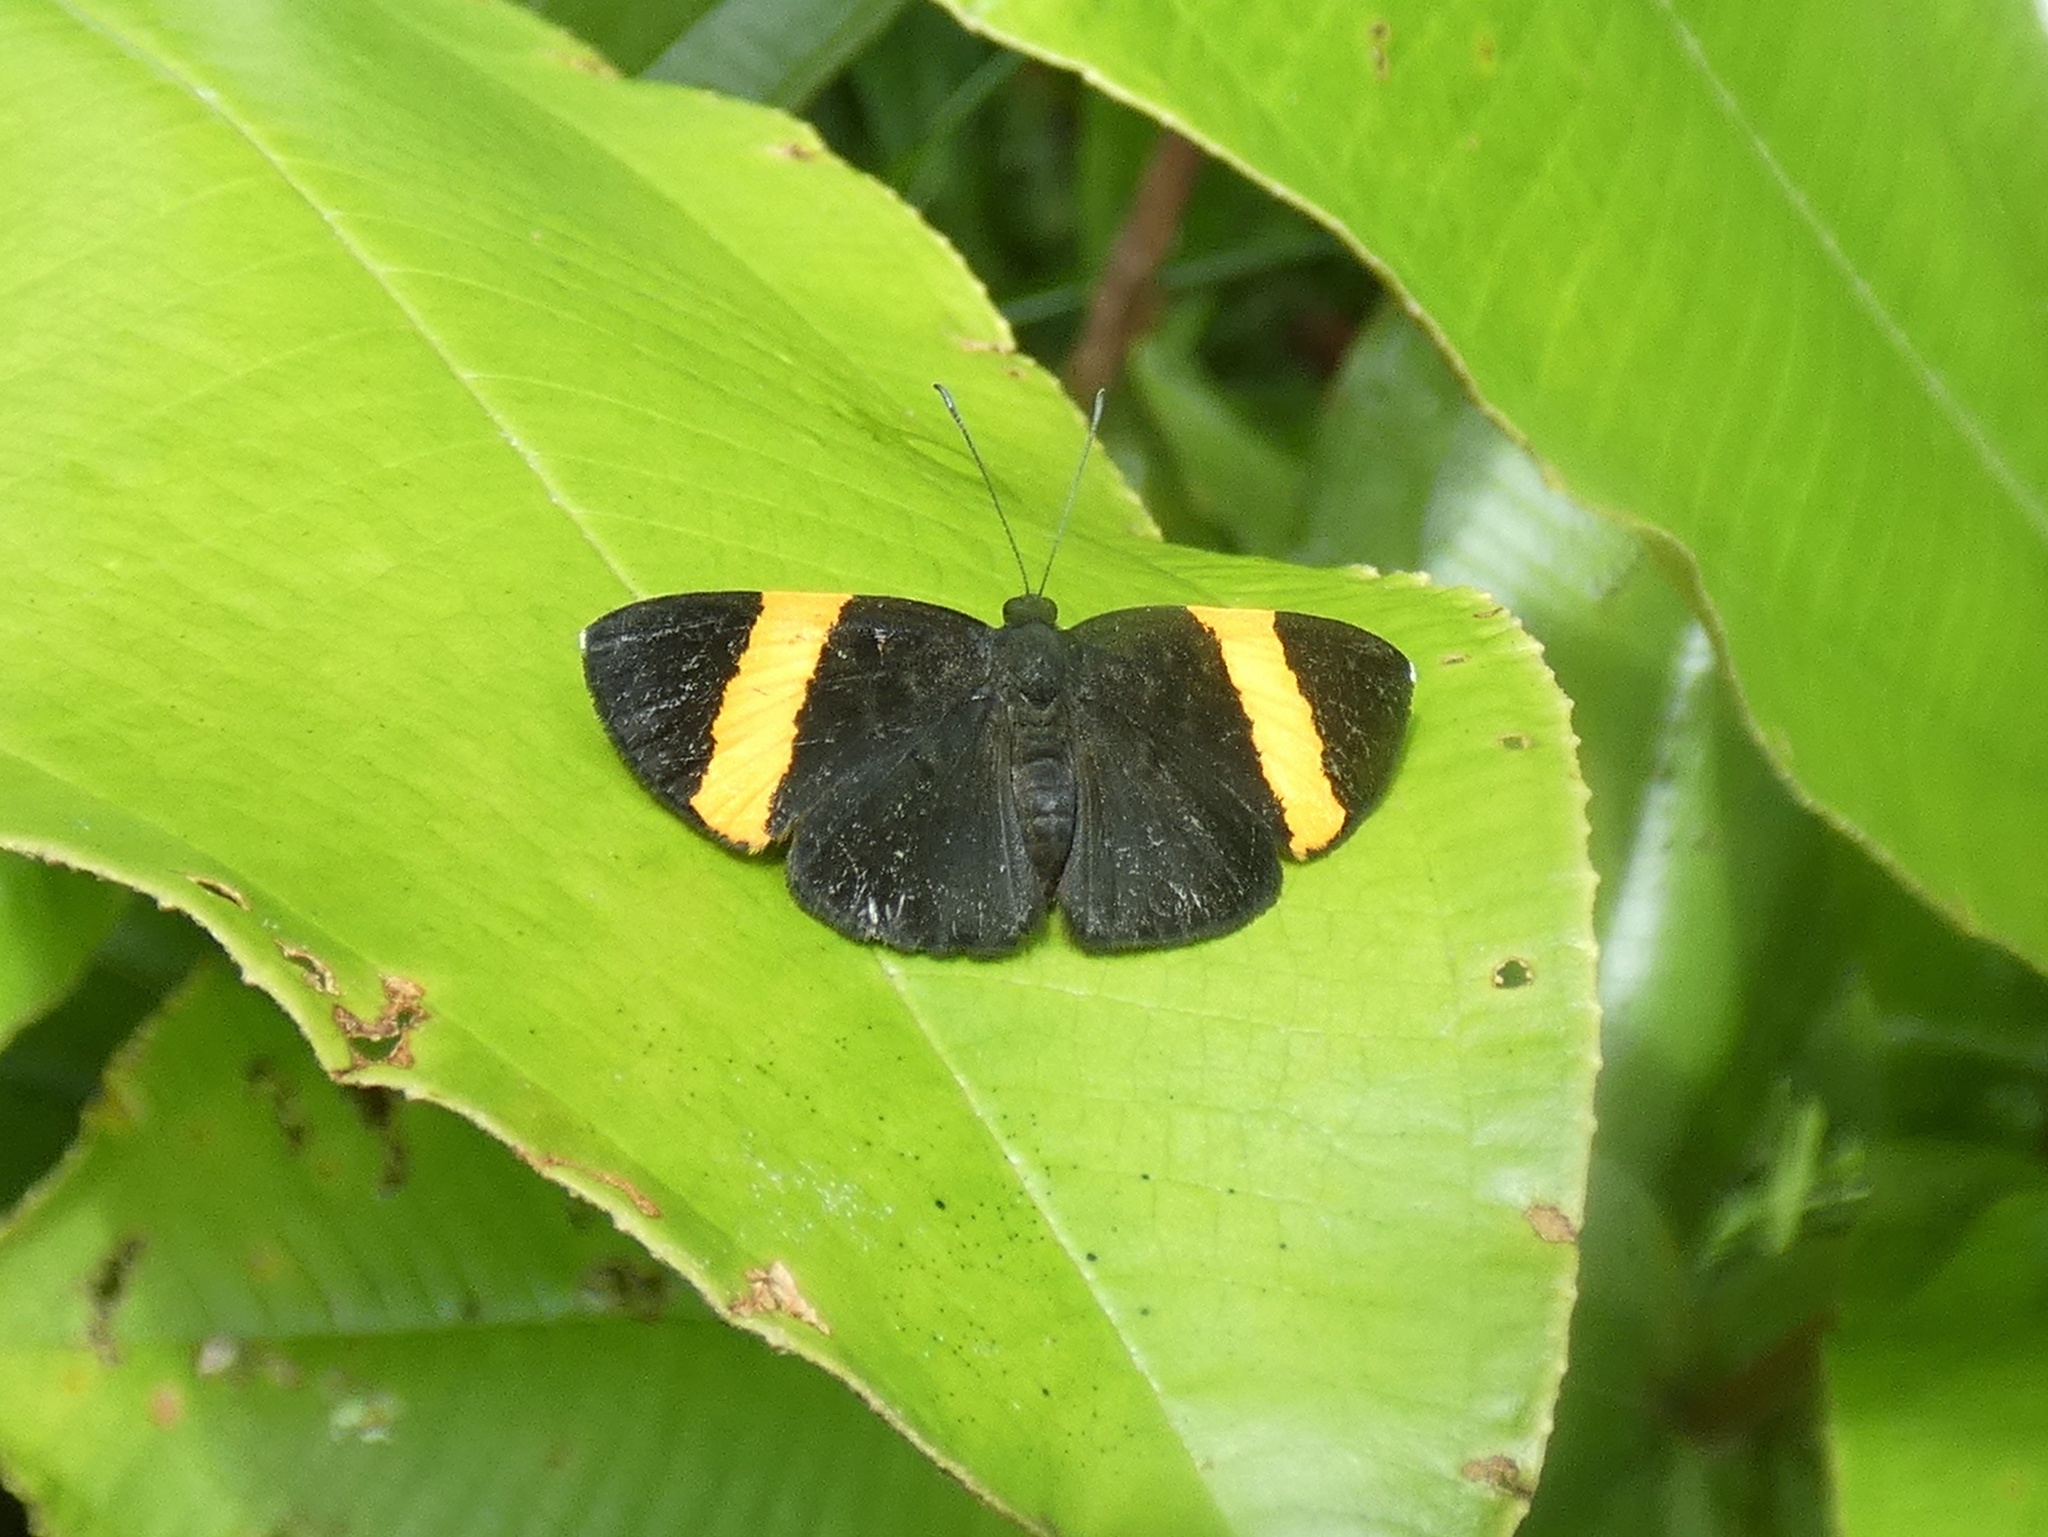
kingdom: Animalia
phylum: Arthropoda
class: Insecta
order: Lepidoptera
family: Riodinidae
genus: Pirascca
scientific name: Pirascca tyriotes
